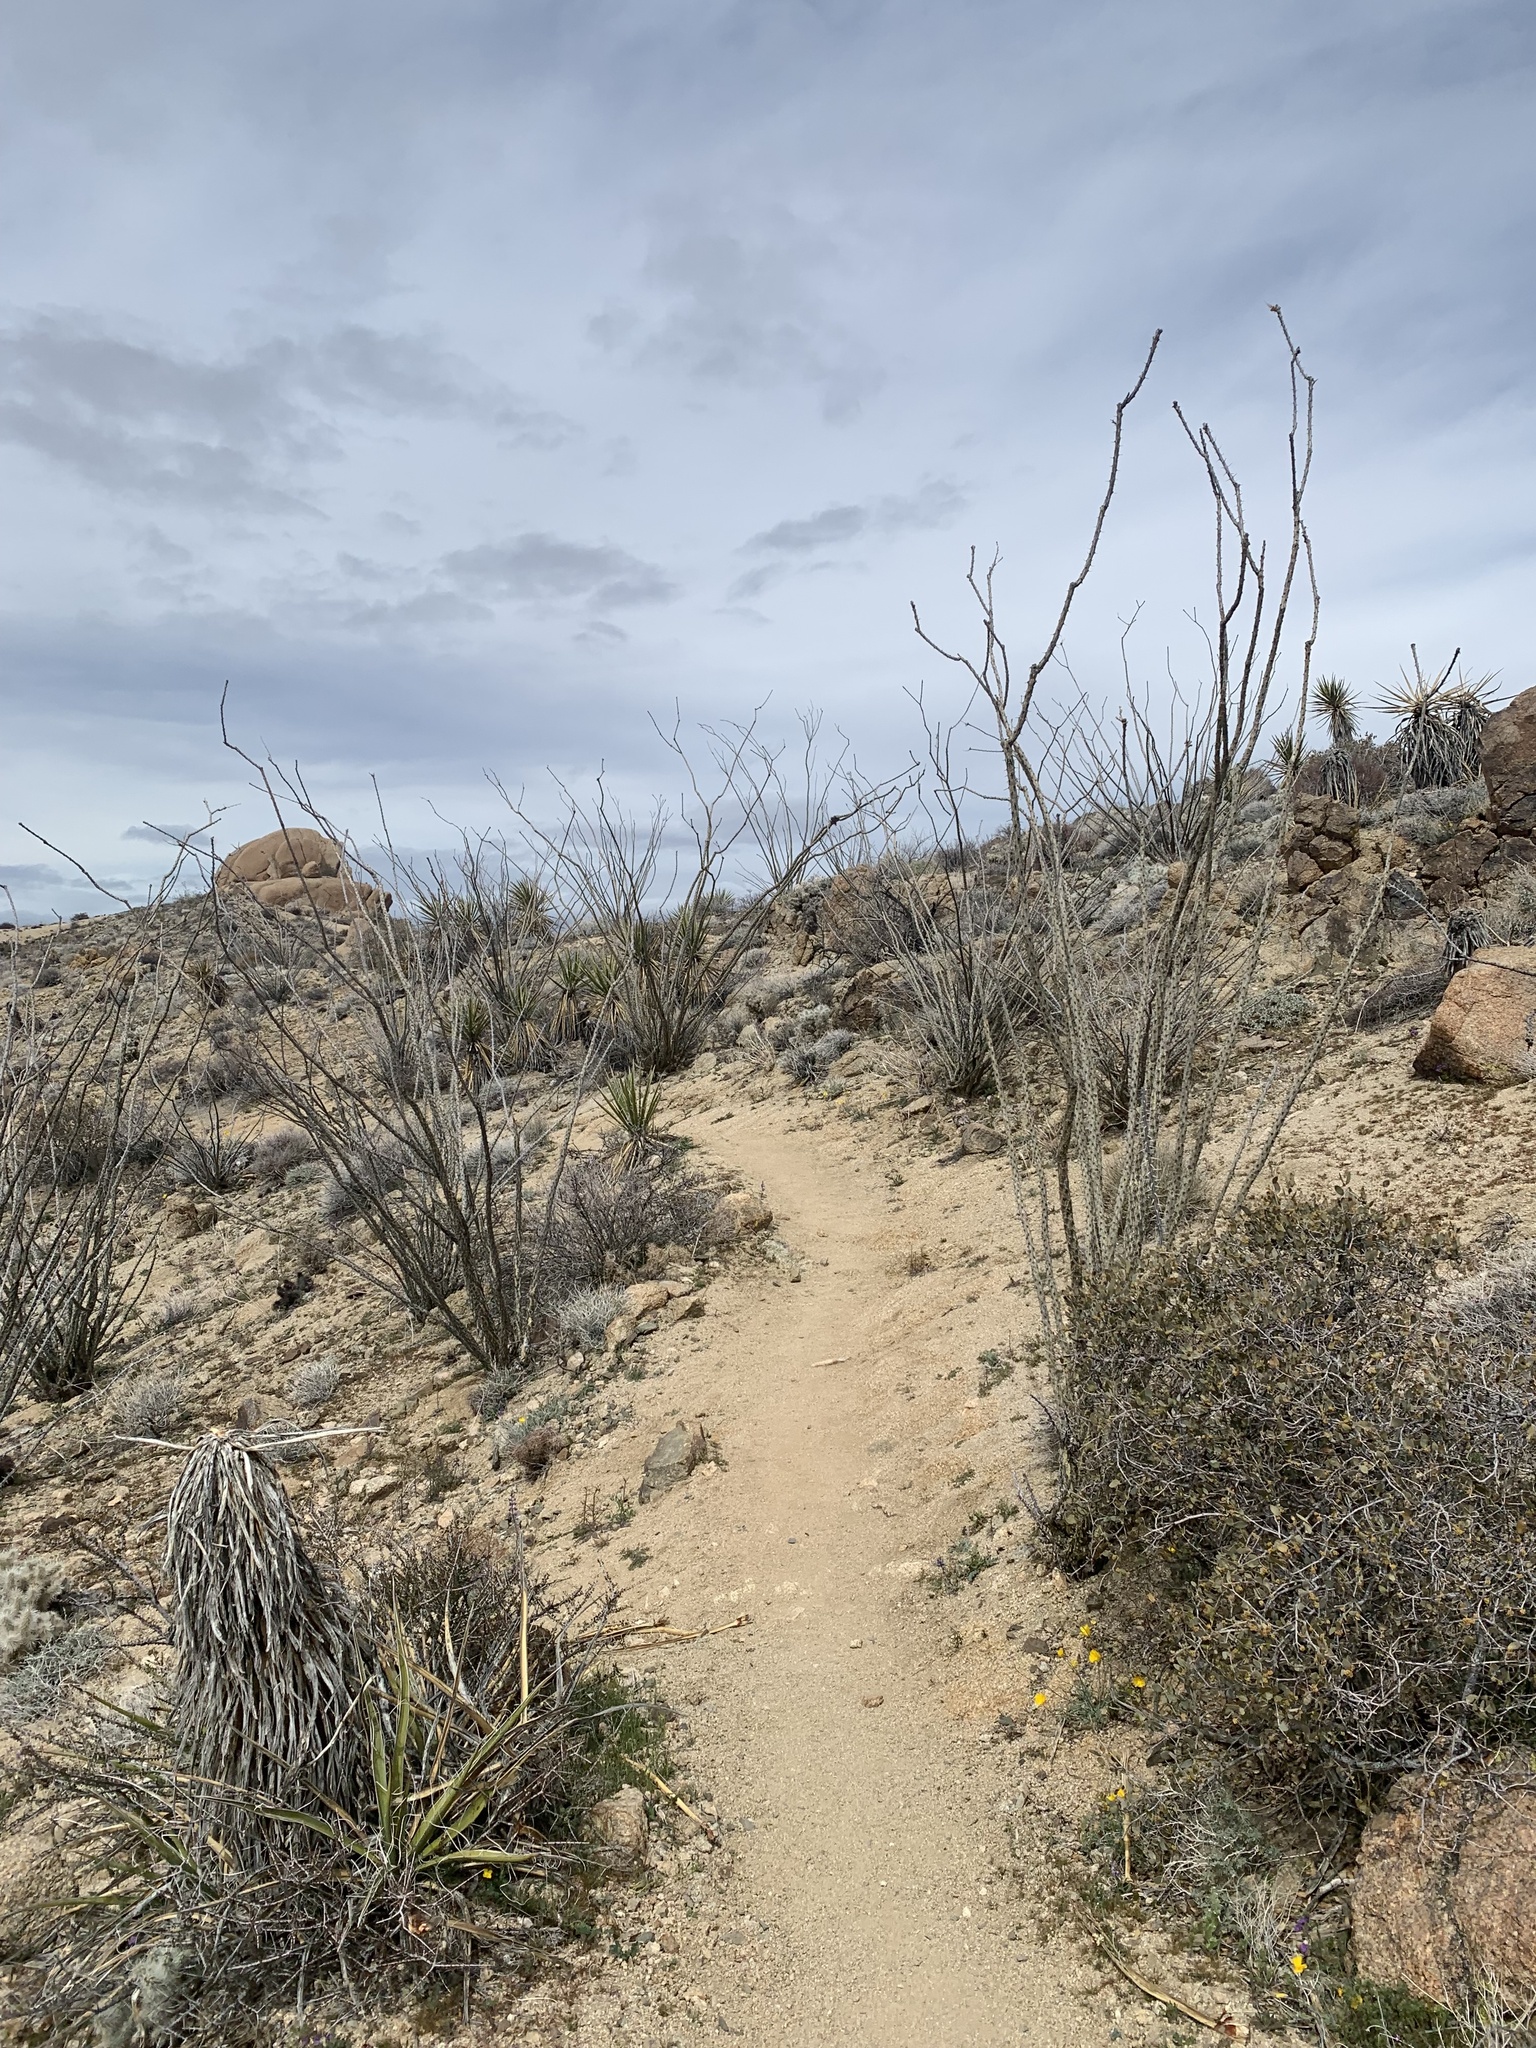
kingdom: Plantae
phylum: Tracheophyta
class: Magnoliopsida
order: Ericales
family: Fouquieriaceae
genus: Fouquieria
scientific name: Fouquieria splendens
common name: Vine-cactus
